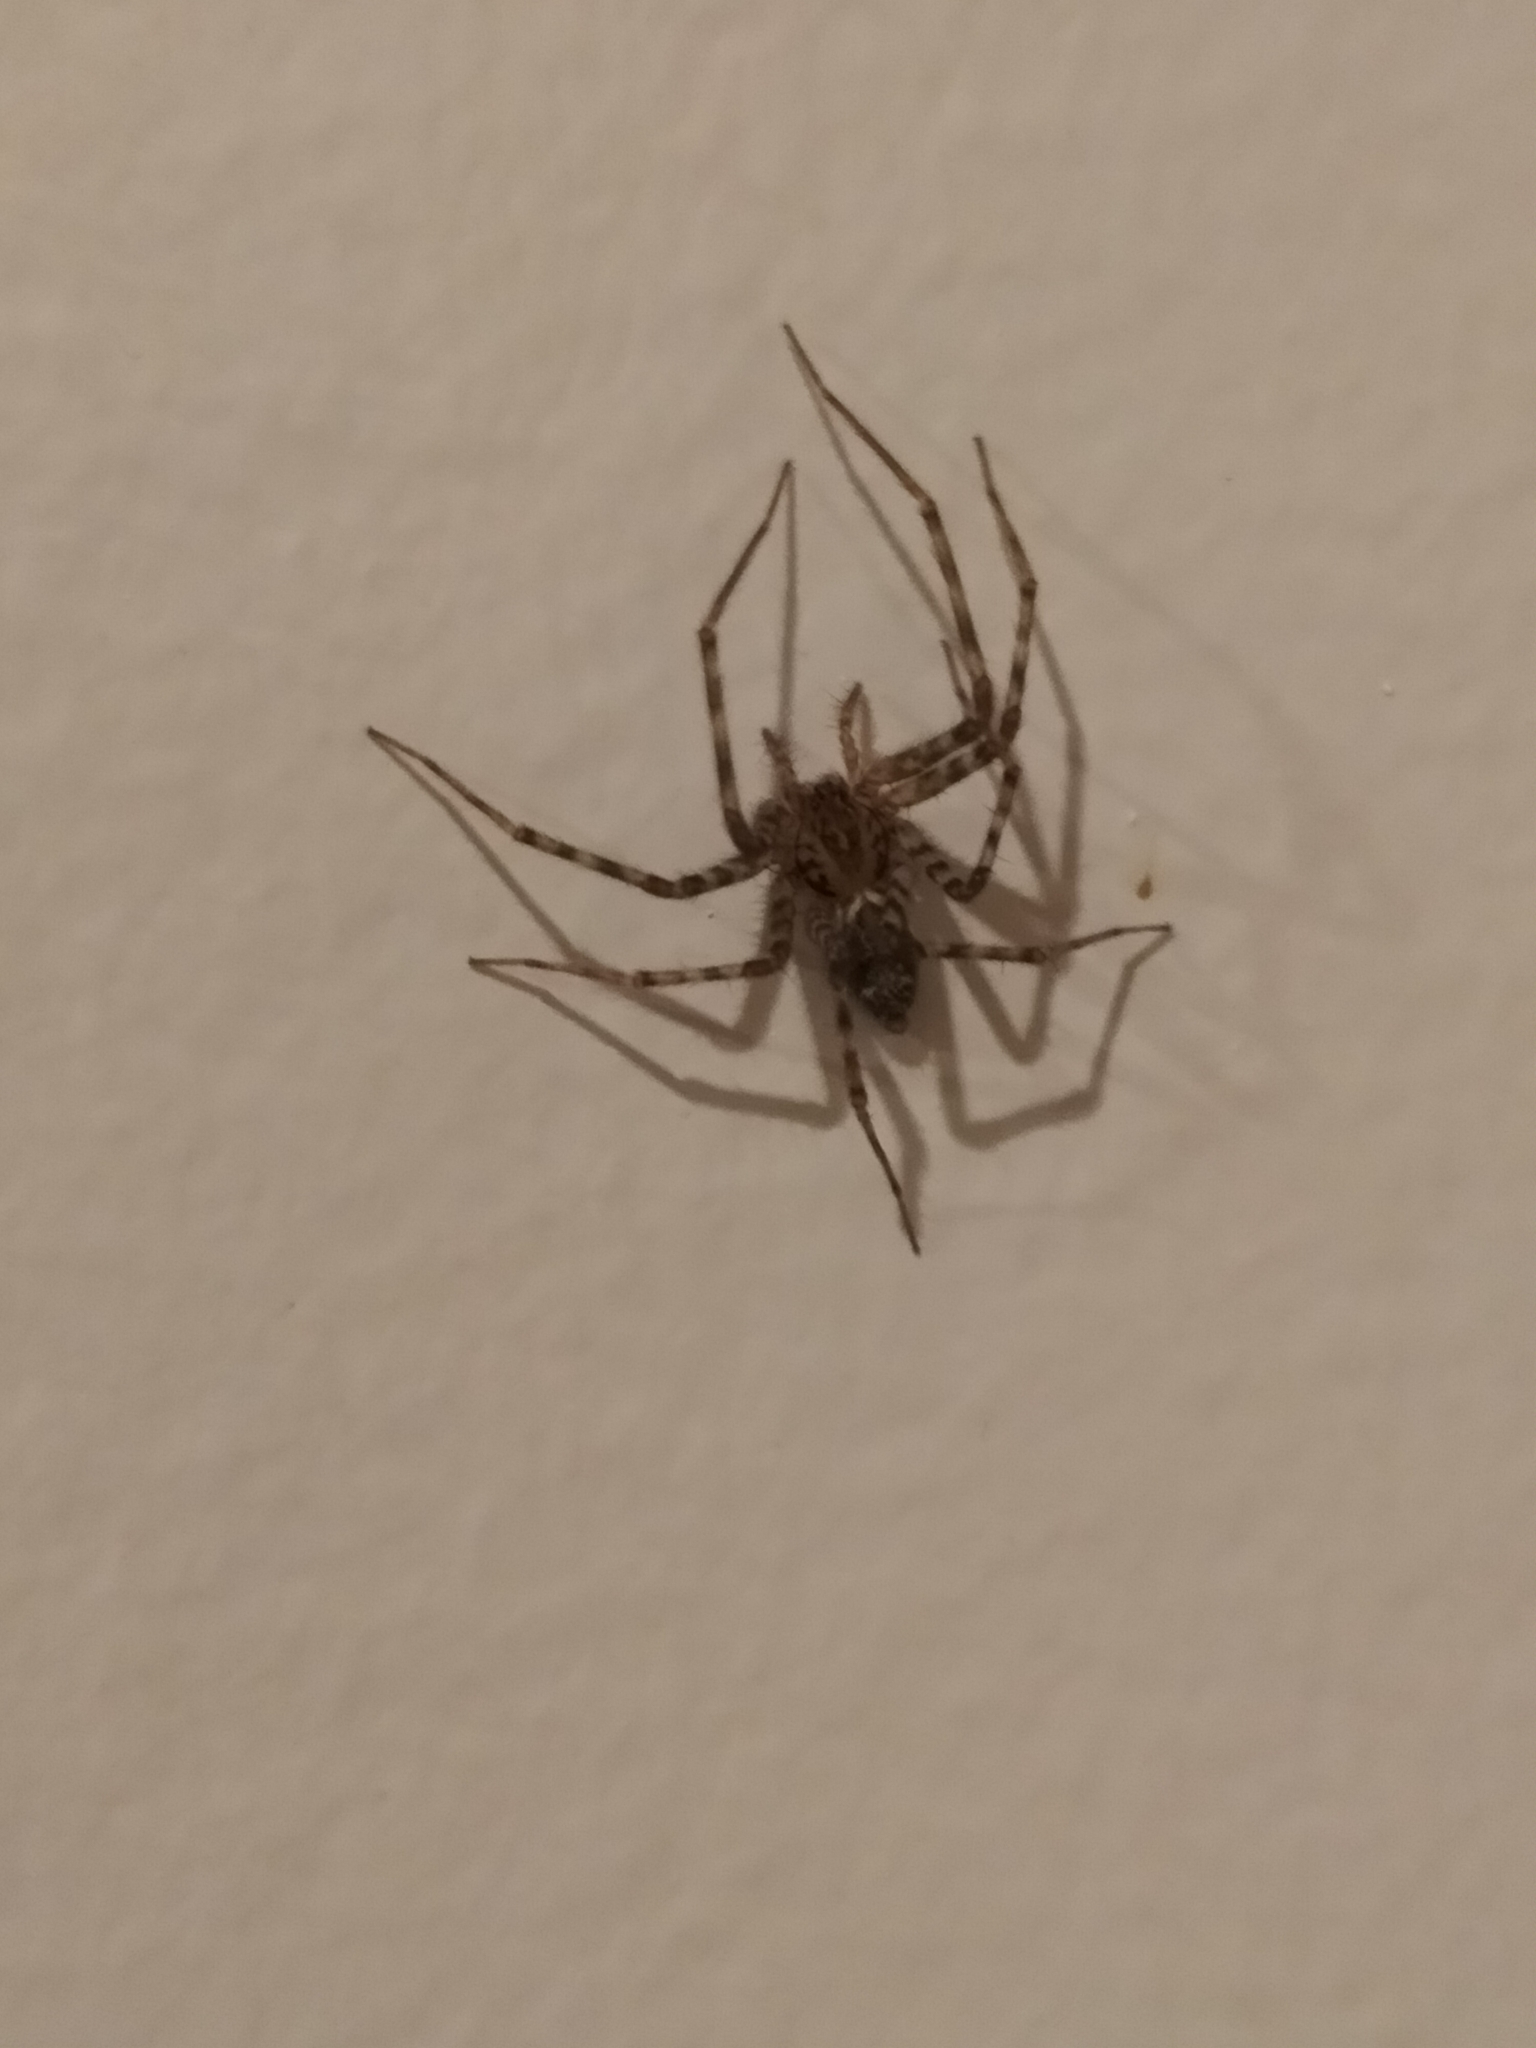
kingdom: Animalia
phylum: Arthropoda
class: Arachnida
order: Araneae
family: Stiphidiidae
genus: Stiphidion
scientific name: Stiphidion facetum
